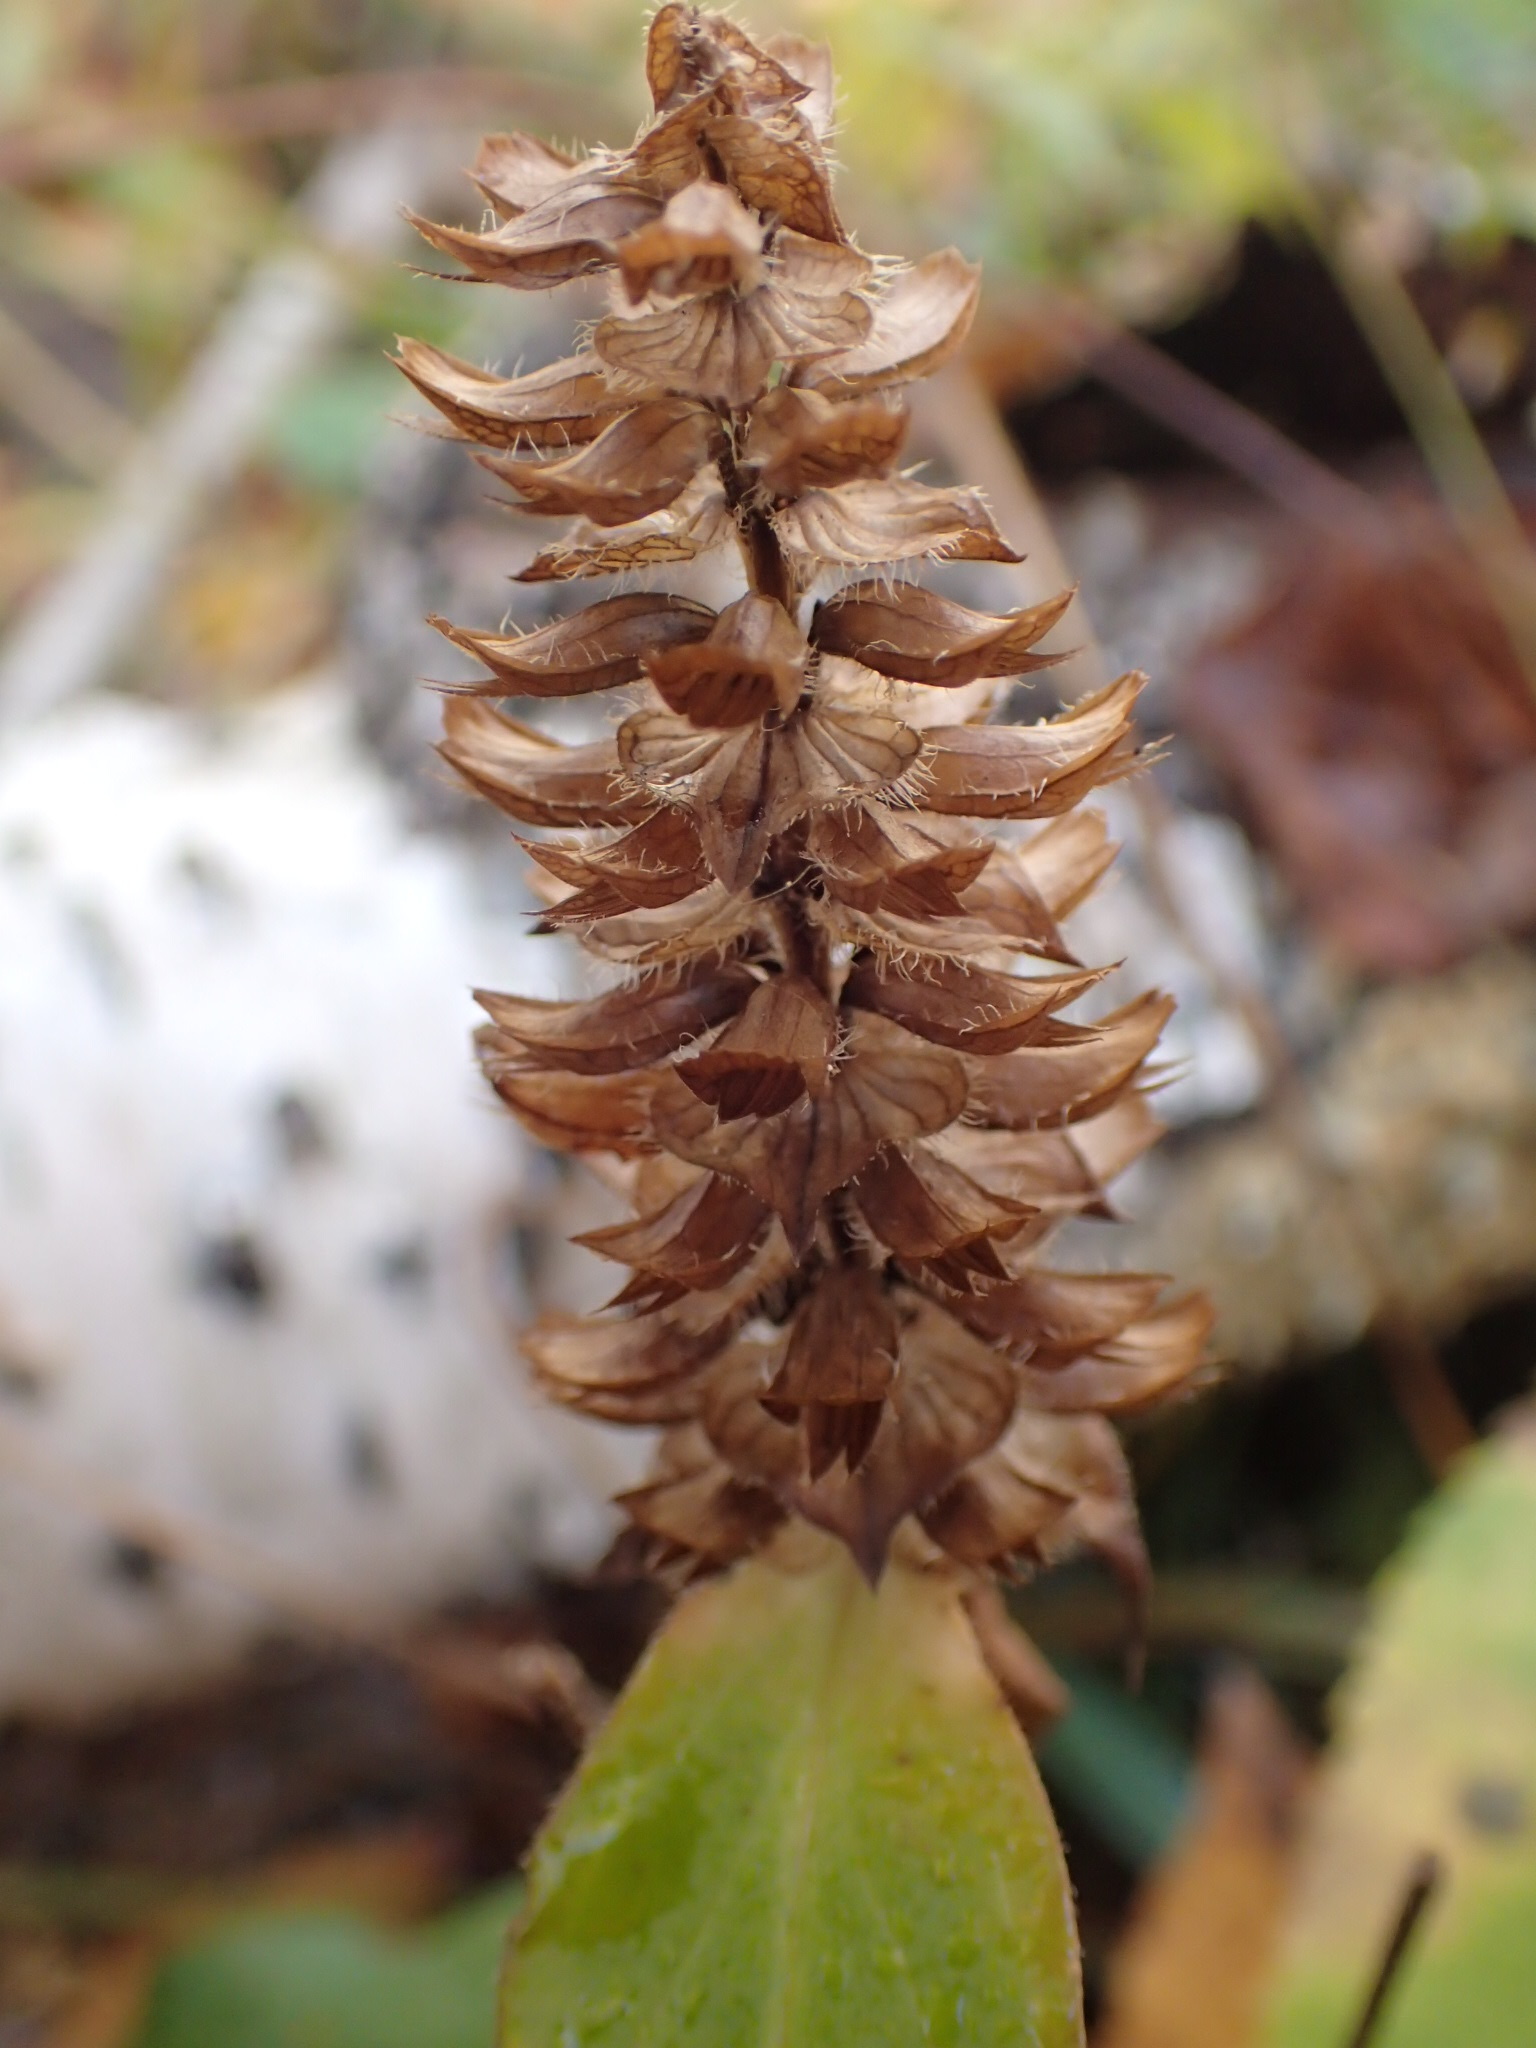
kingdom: Plantae
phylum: Tracheophyta
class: Magnoliopsida
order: Lamiales
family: Lamiaceae
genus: Prunella
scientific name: Prunella vulgaris
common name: Heal-all
